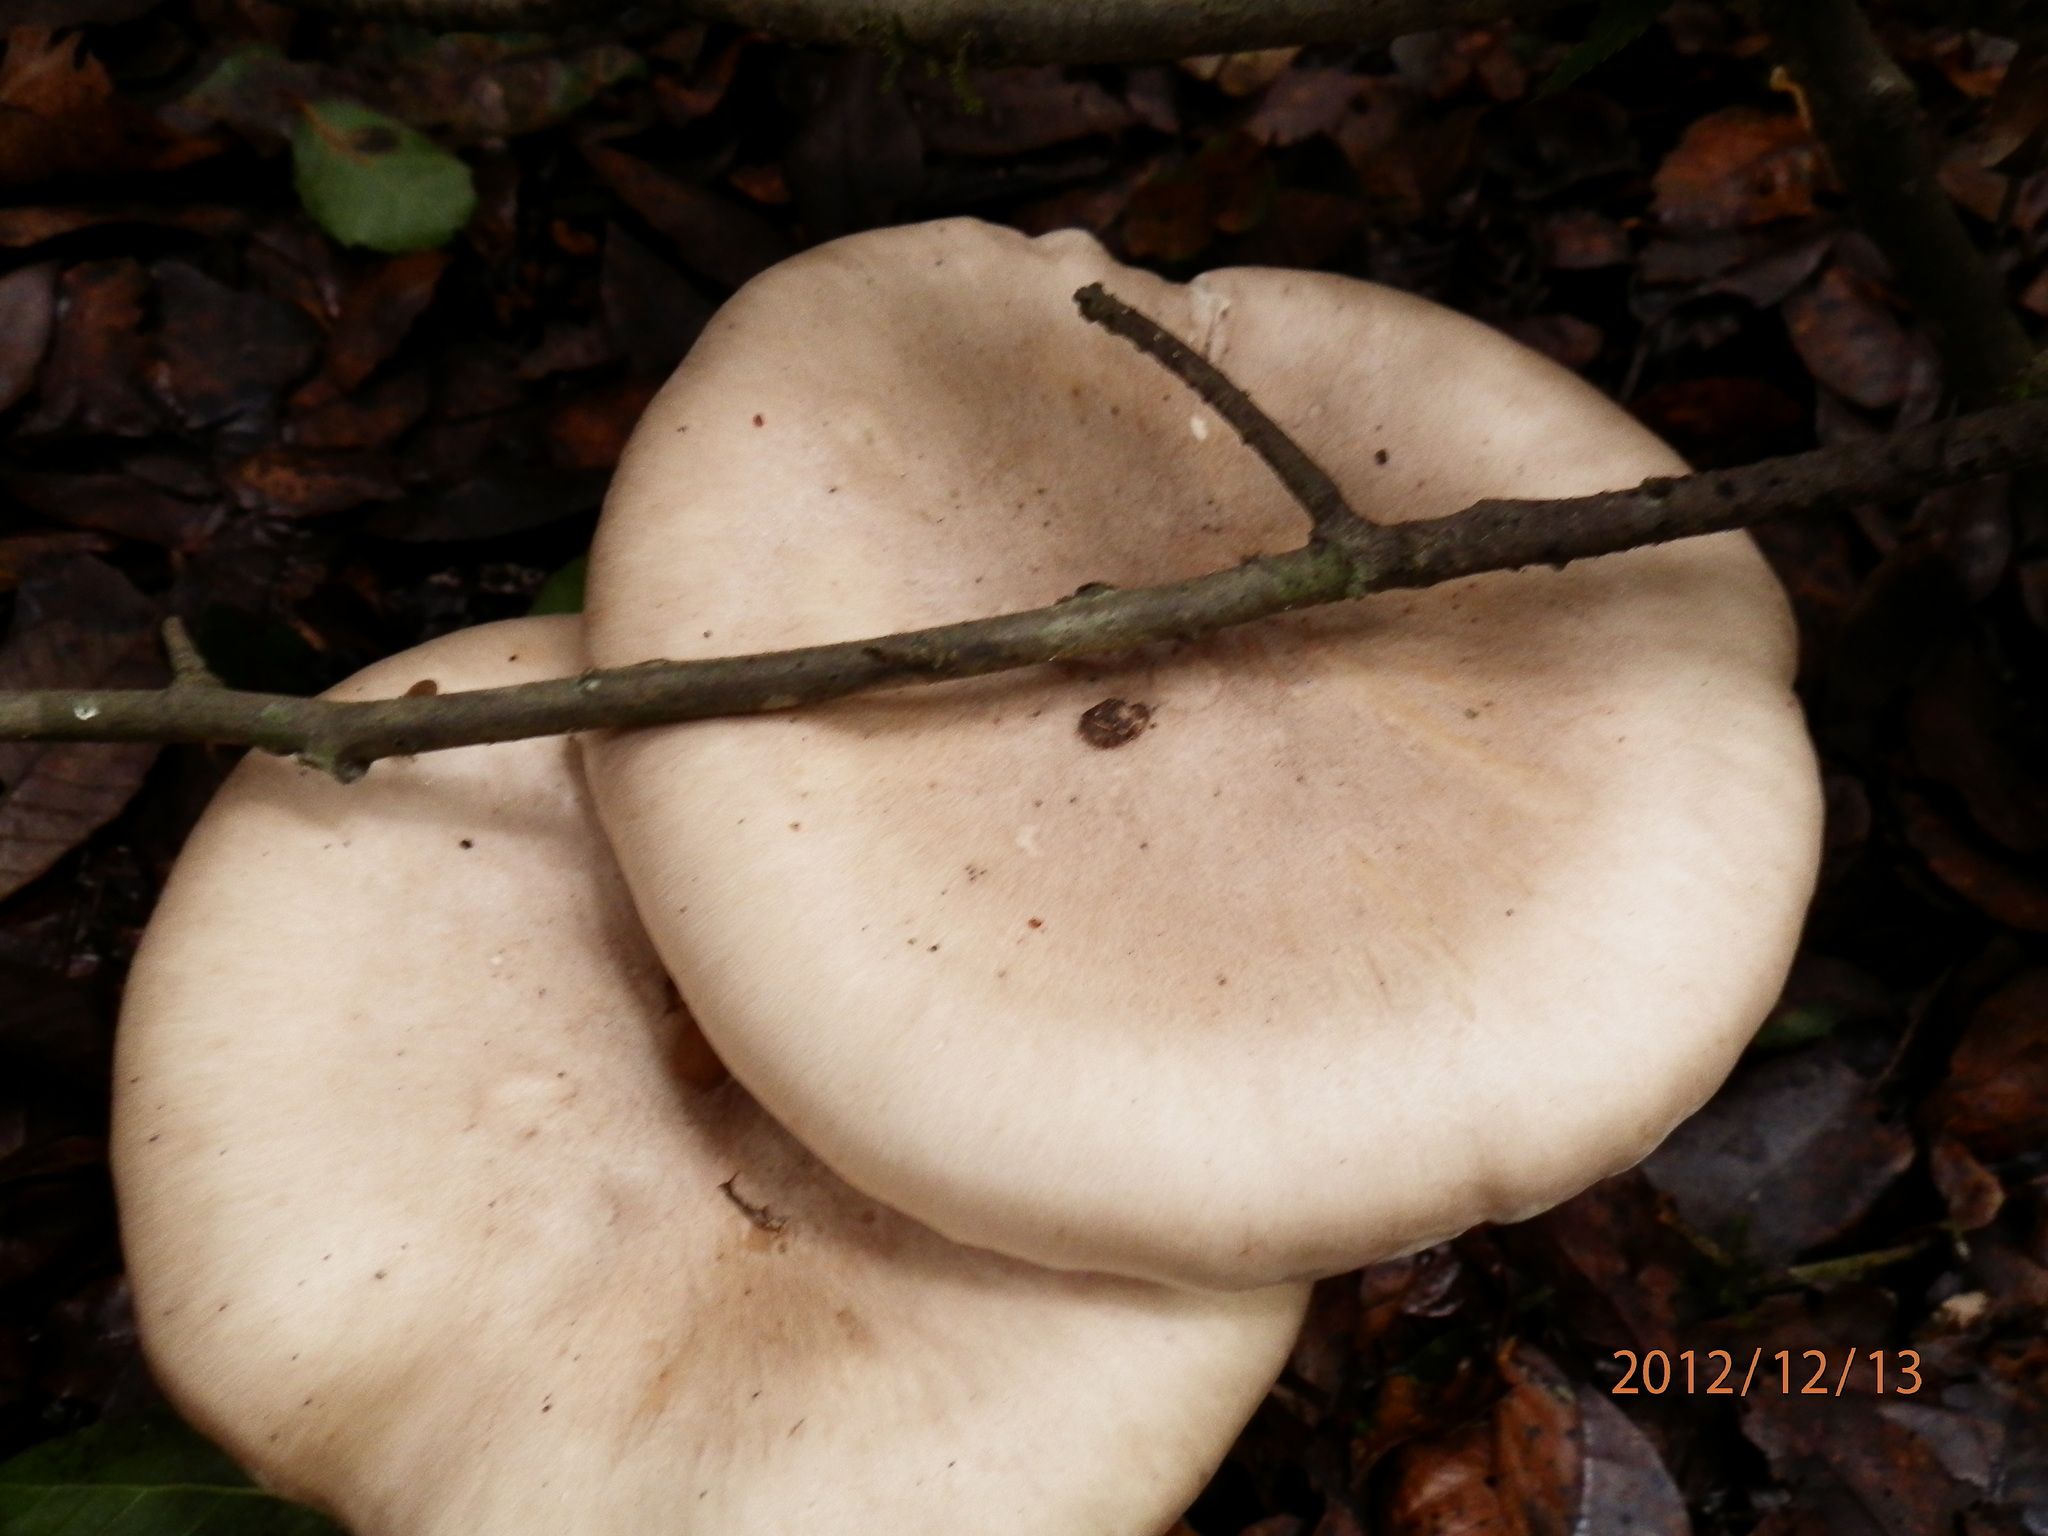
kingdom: Fungi
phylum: Basidiomycota
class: Agaricomycetes
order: Agaricales
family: Tricholomataceae
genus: Clitocybe
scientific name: Clitocybe nebularis
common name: Clouded agaric
